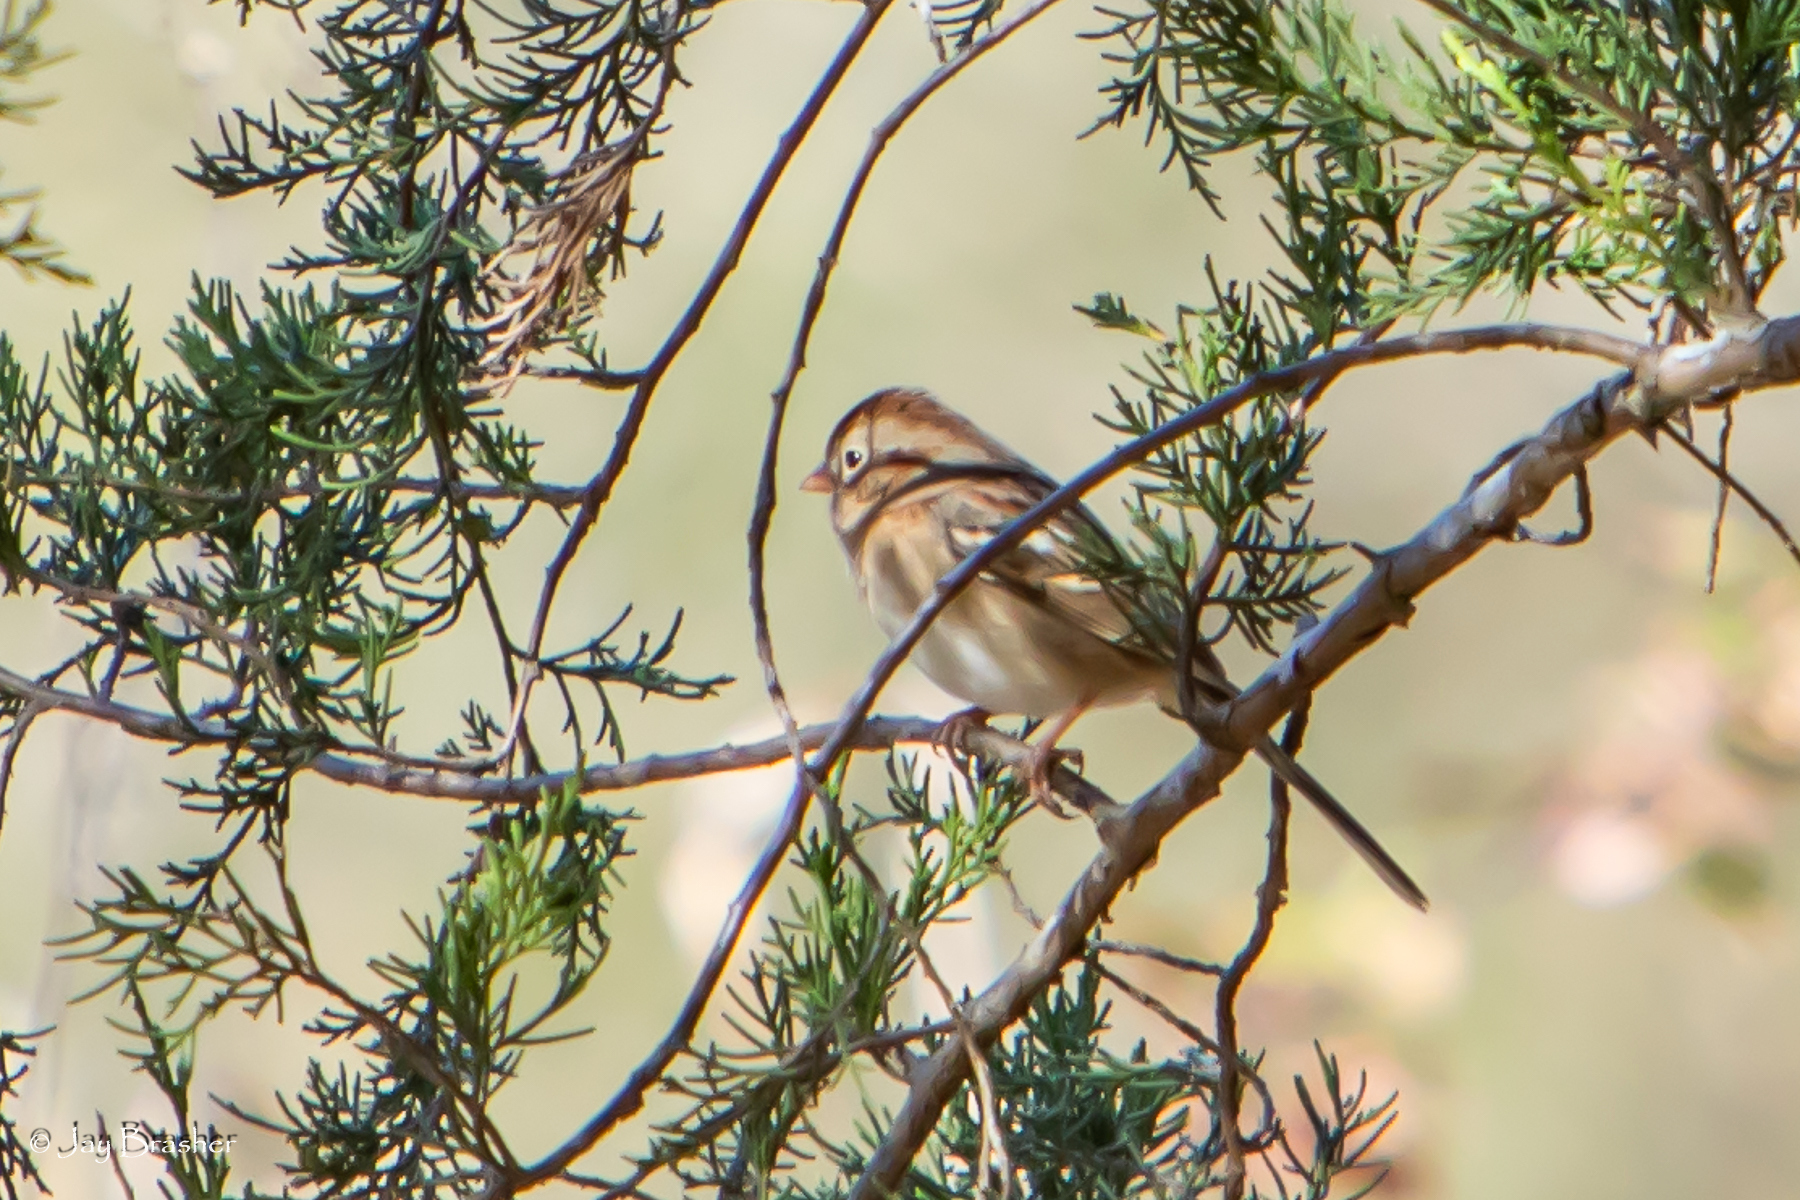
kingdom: Animalia
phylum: Chordata
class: Aves
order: Passeriformes
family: Passerellidae
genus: Spizella
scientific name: Spizella pusilla
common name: Field sparrow
